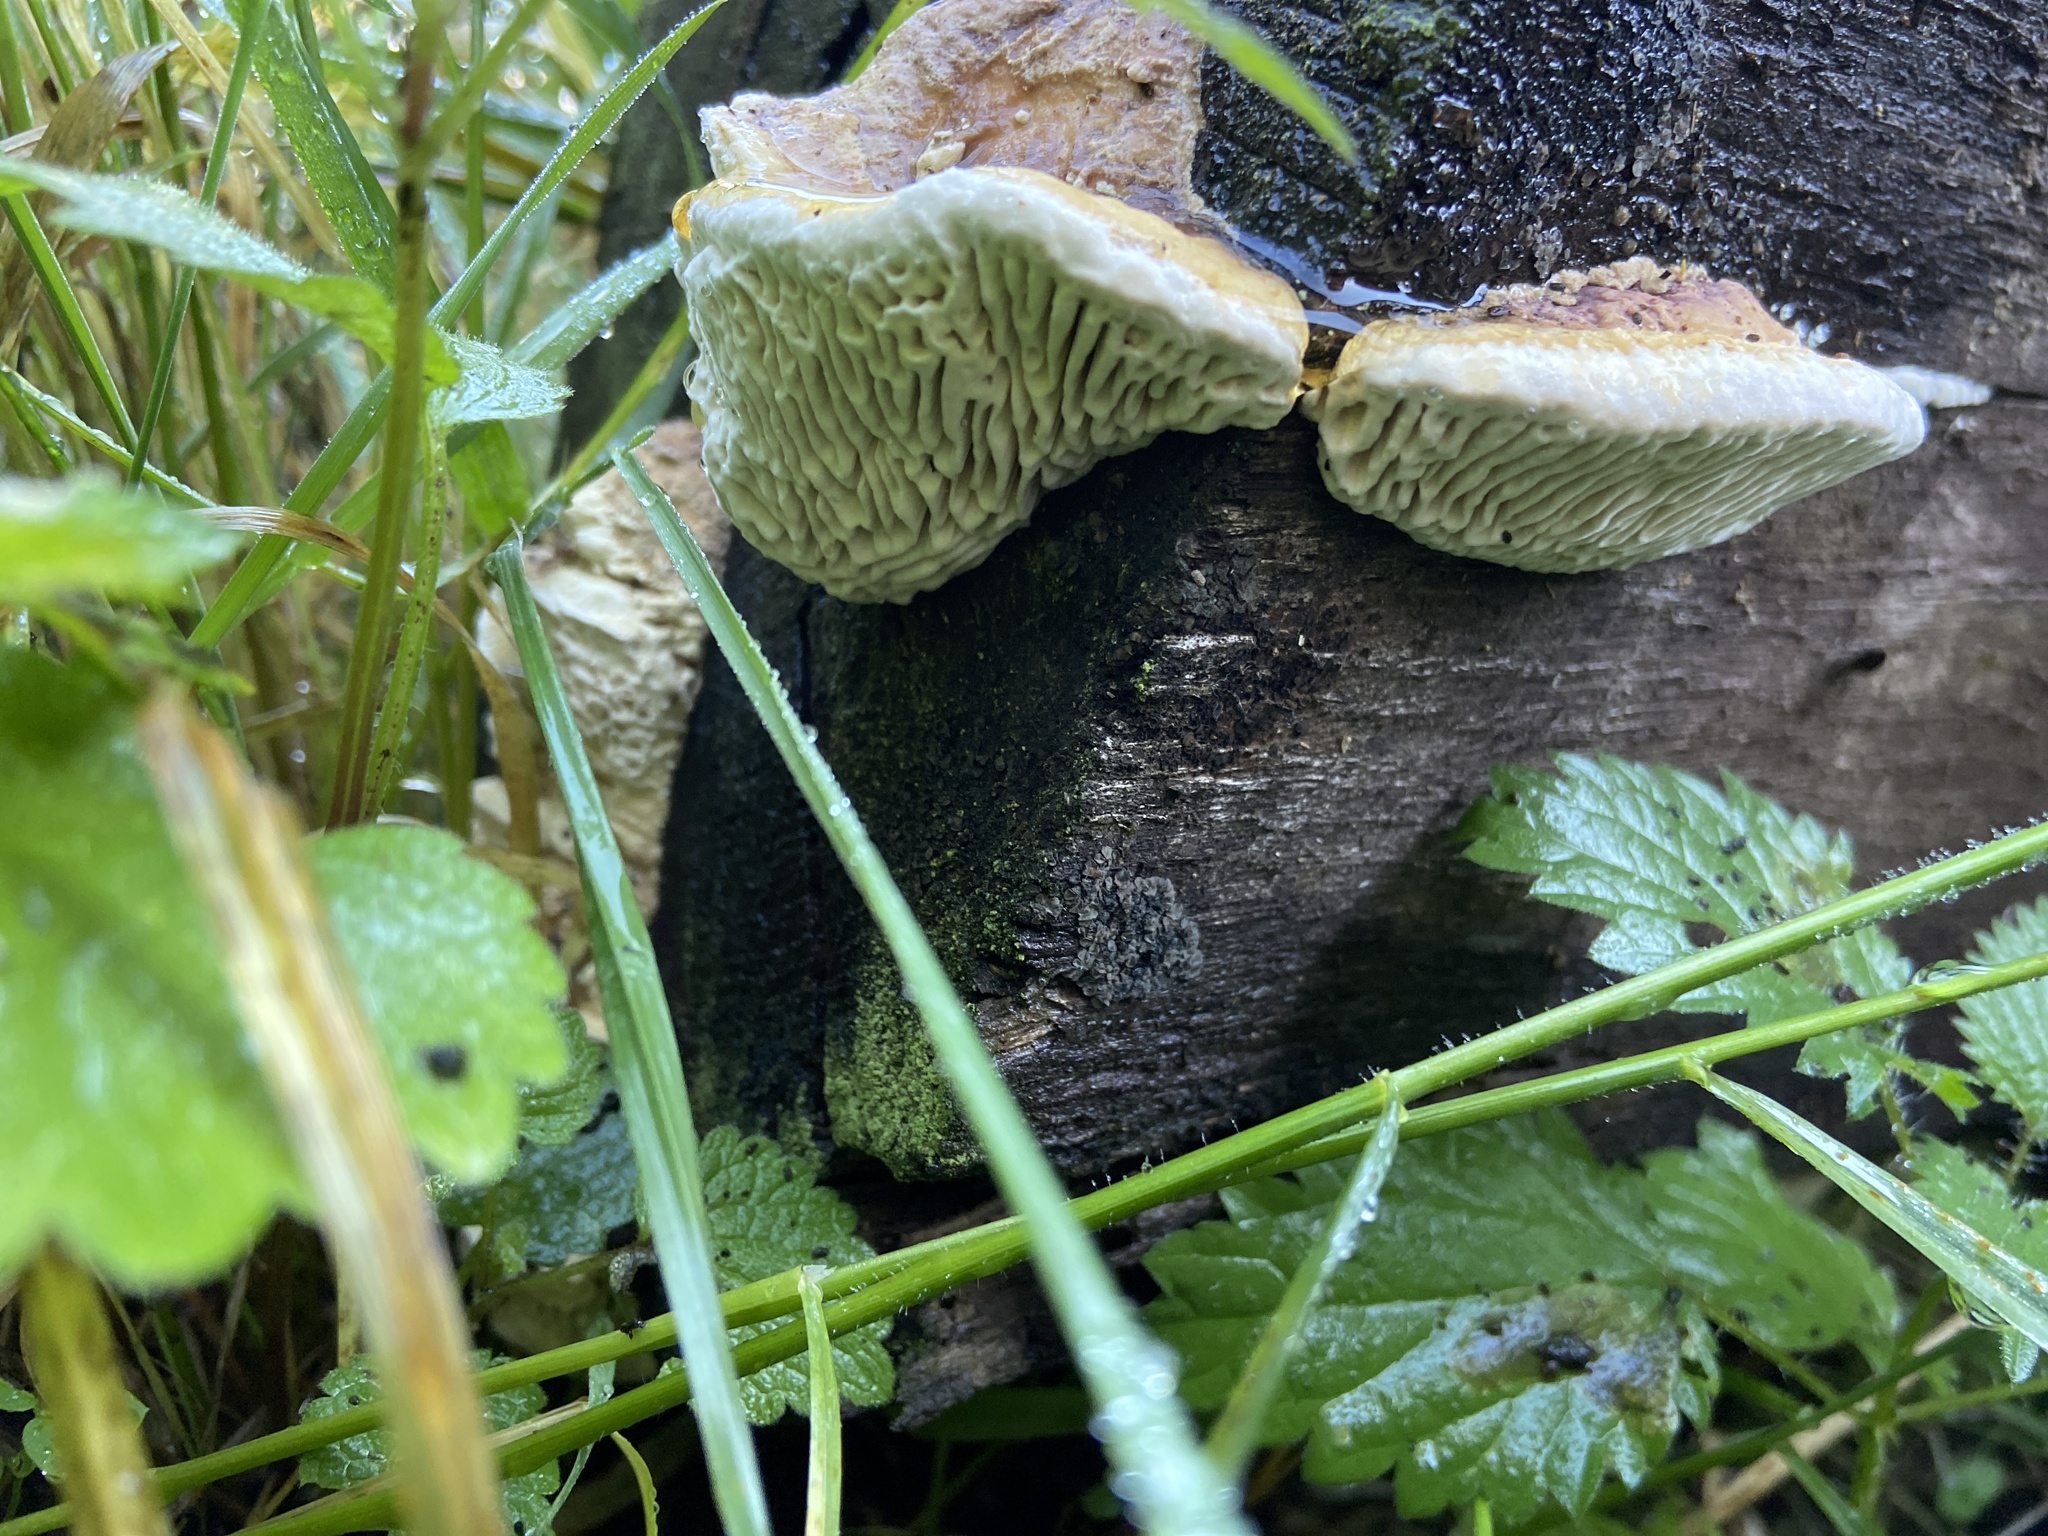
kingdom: Fungi
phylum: Basidiomycota
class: Agaricomycetes
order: Polyporales
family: Fomitopsidaceae
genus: Fomitopsis
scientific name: Fomitopsis pinicola
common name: Red-belted bracket
